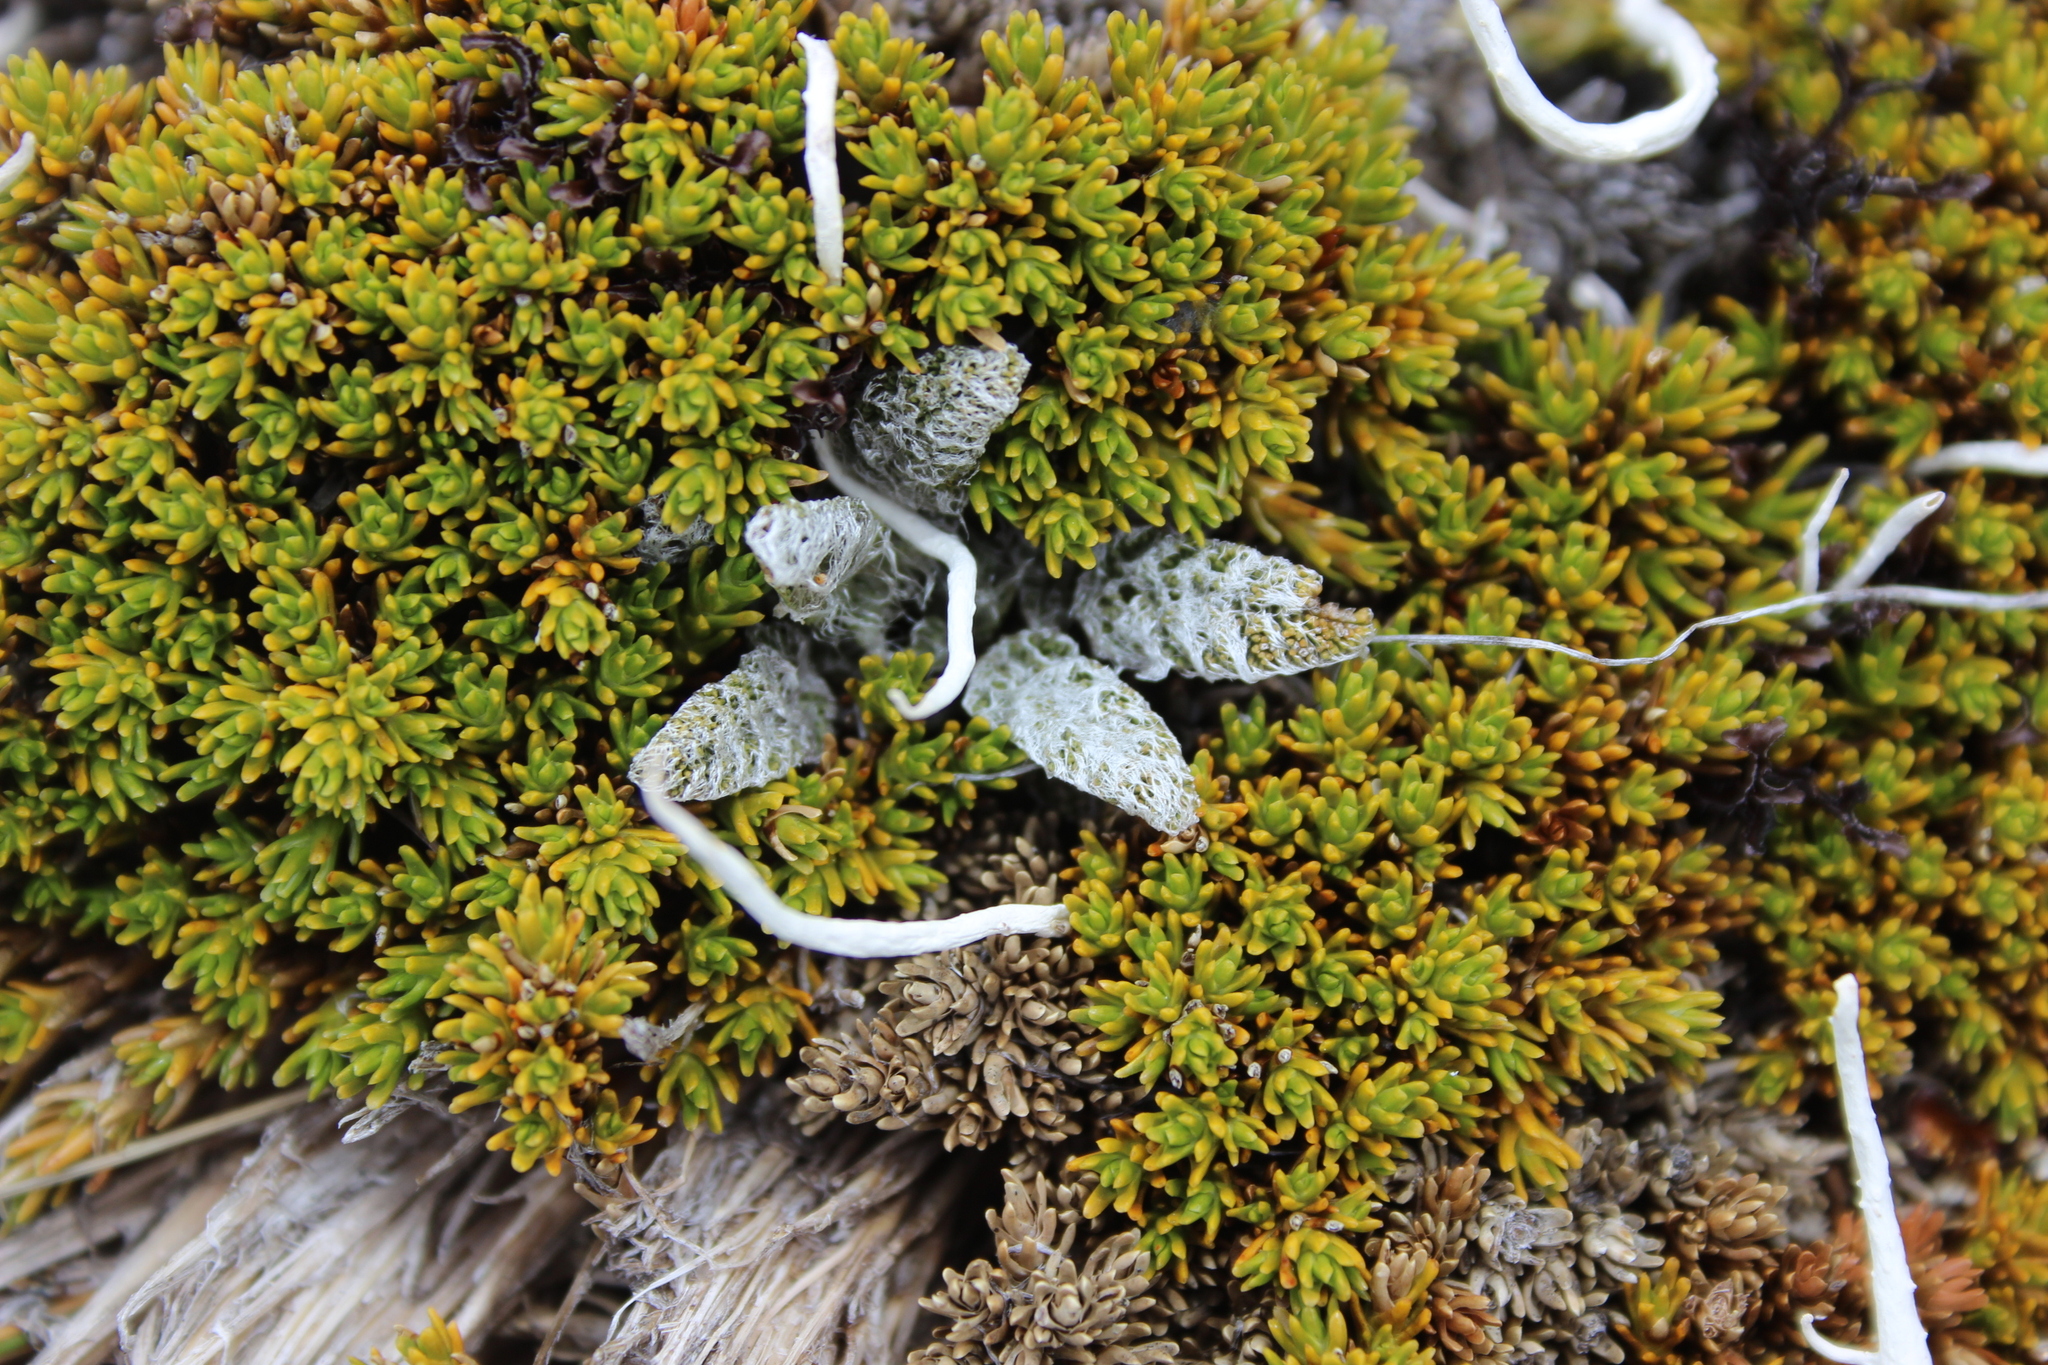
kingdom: Plantae
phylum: Tracheophyta
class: Magnoliopsida
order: Apiales
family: Apiaceae
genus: Anisotome
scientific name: Anisotome lanuginosa
